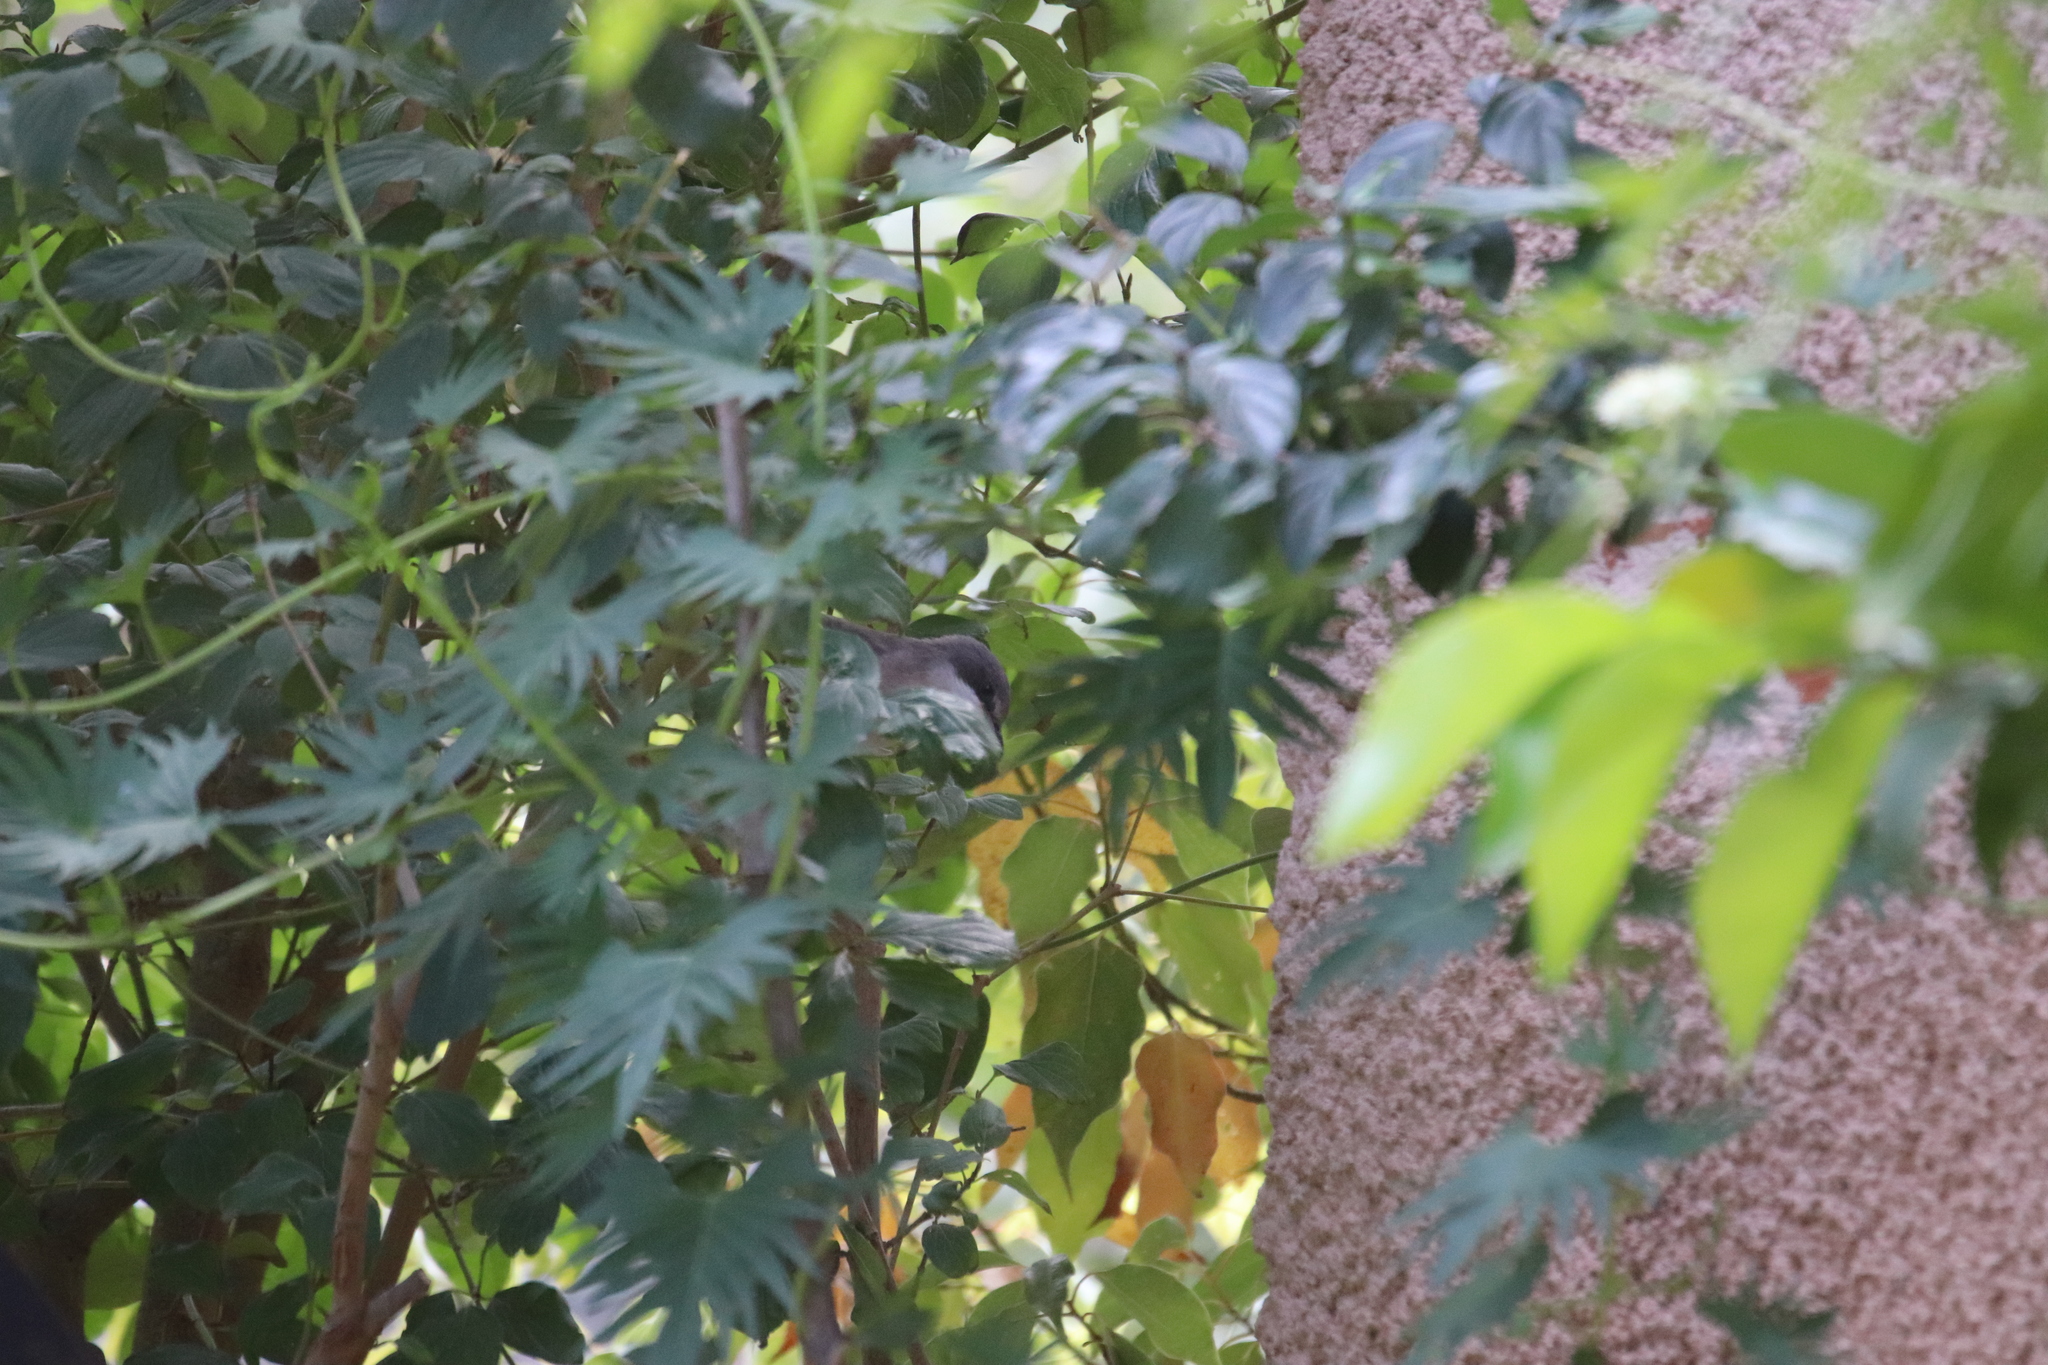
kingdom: Animalia
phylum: Chordata
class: Aves
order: Passeriformes
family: Sylviidae
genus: Sylvia
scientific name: Sylvia curruca
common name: Lesser whitethroat
